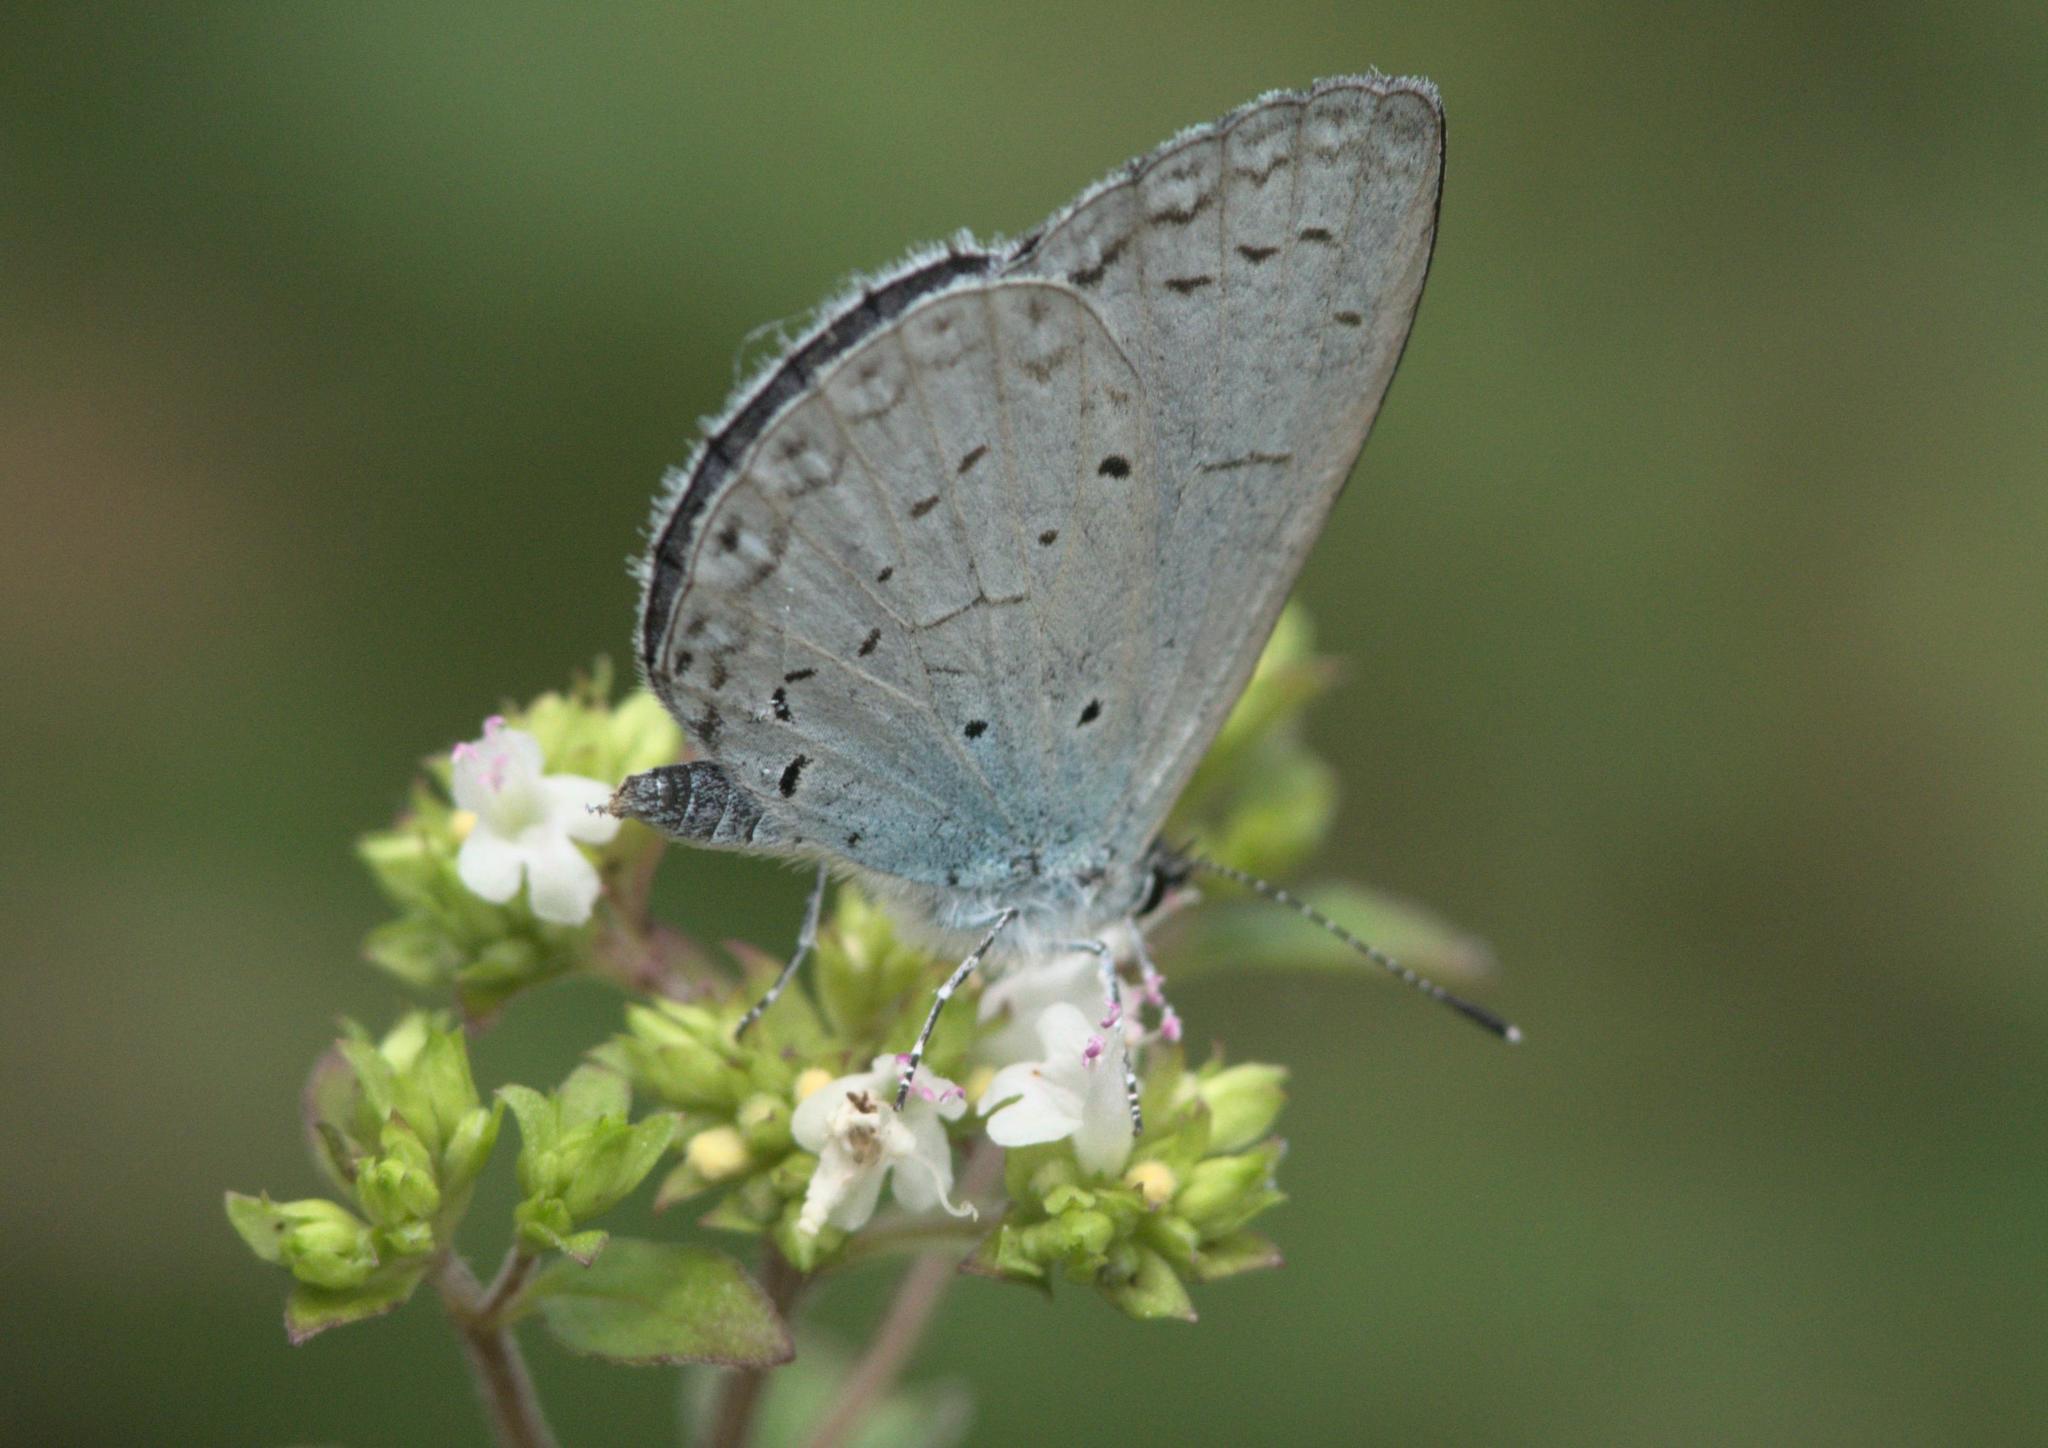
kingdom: Animalia
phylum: Arthropoda
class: Insecta
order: Lepidoptera
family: Lycaenidae
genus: Celastrina
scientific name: Celastrina gigas
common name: Silvery hedge blue
